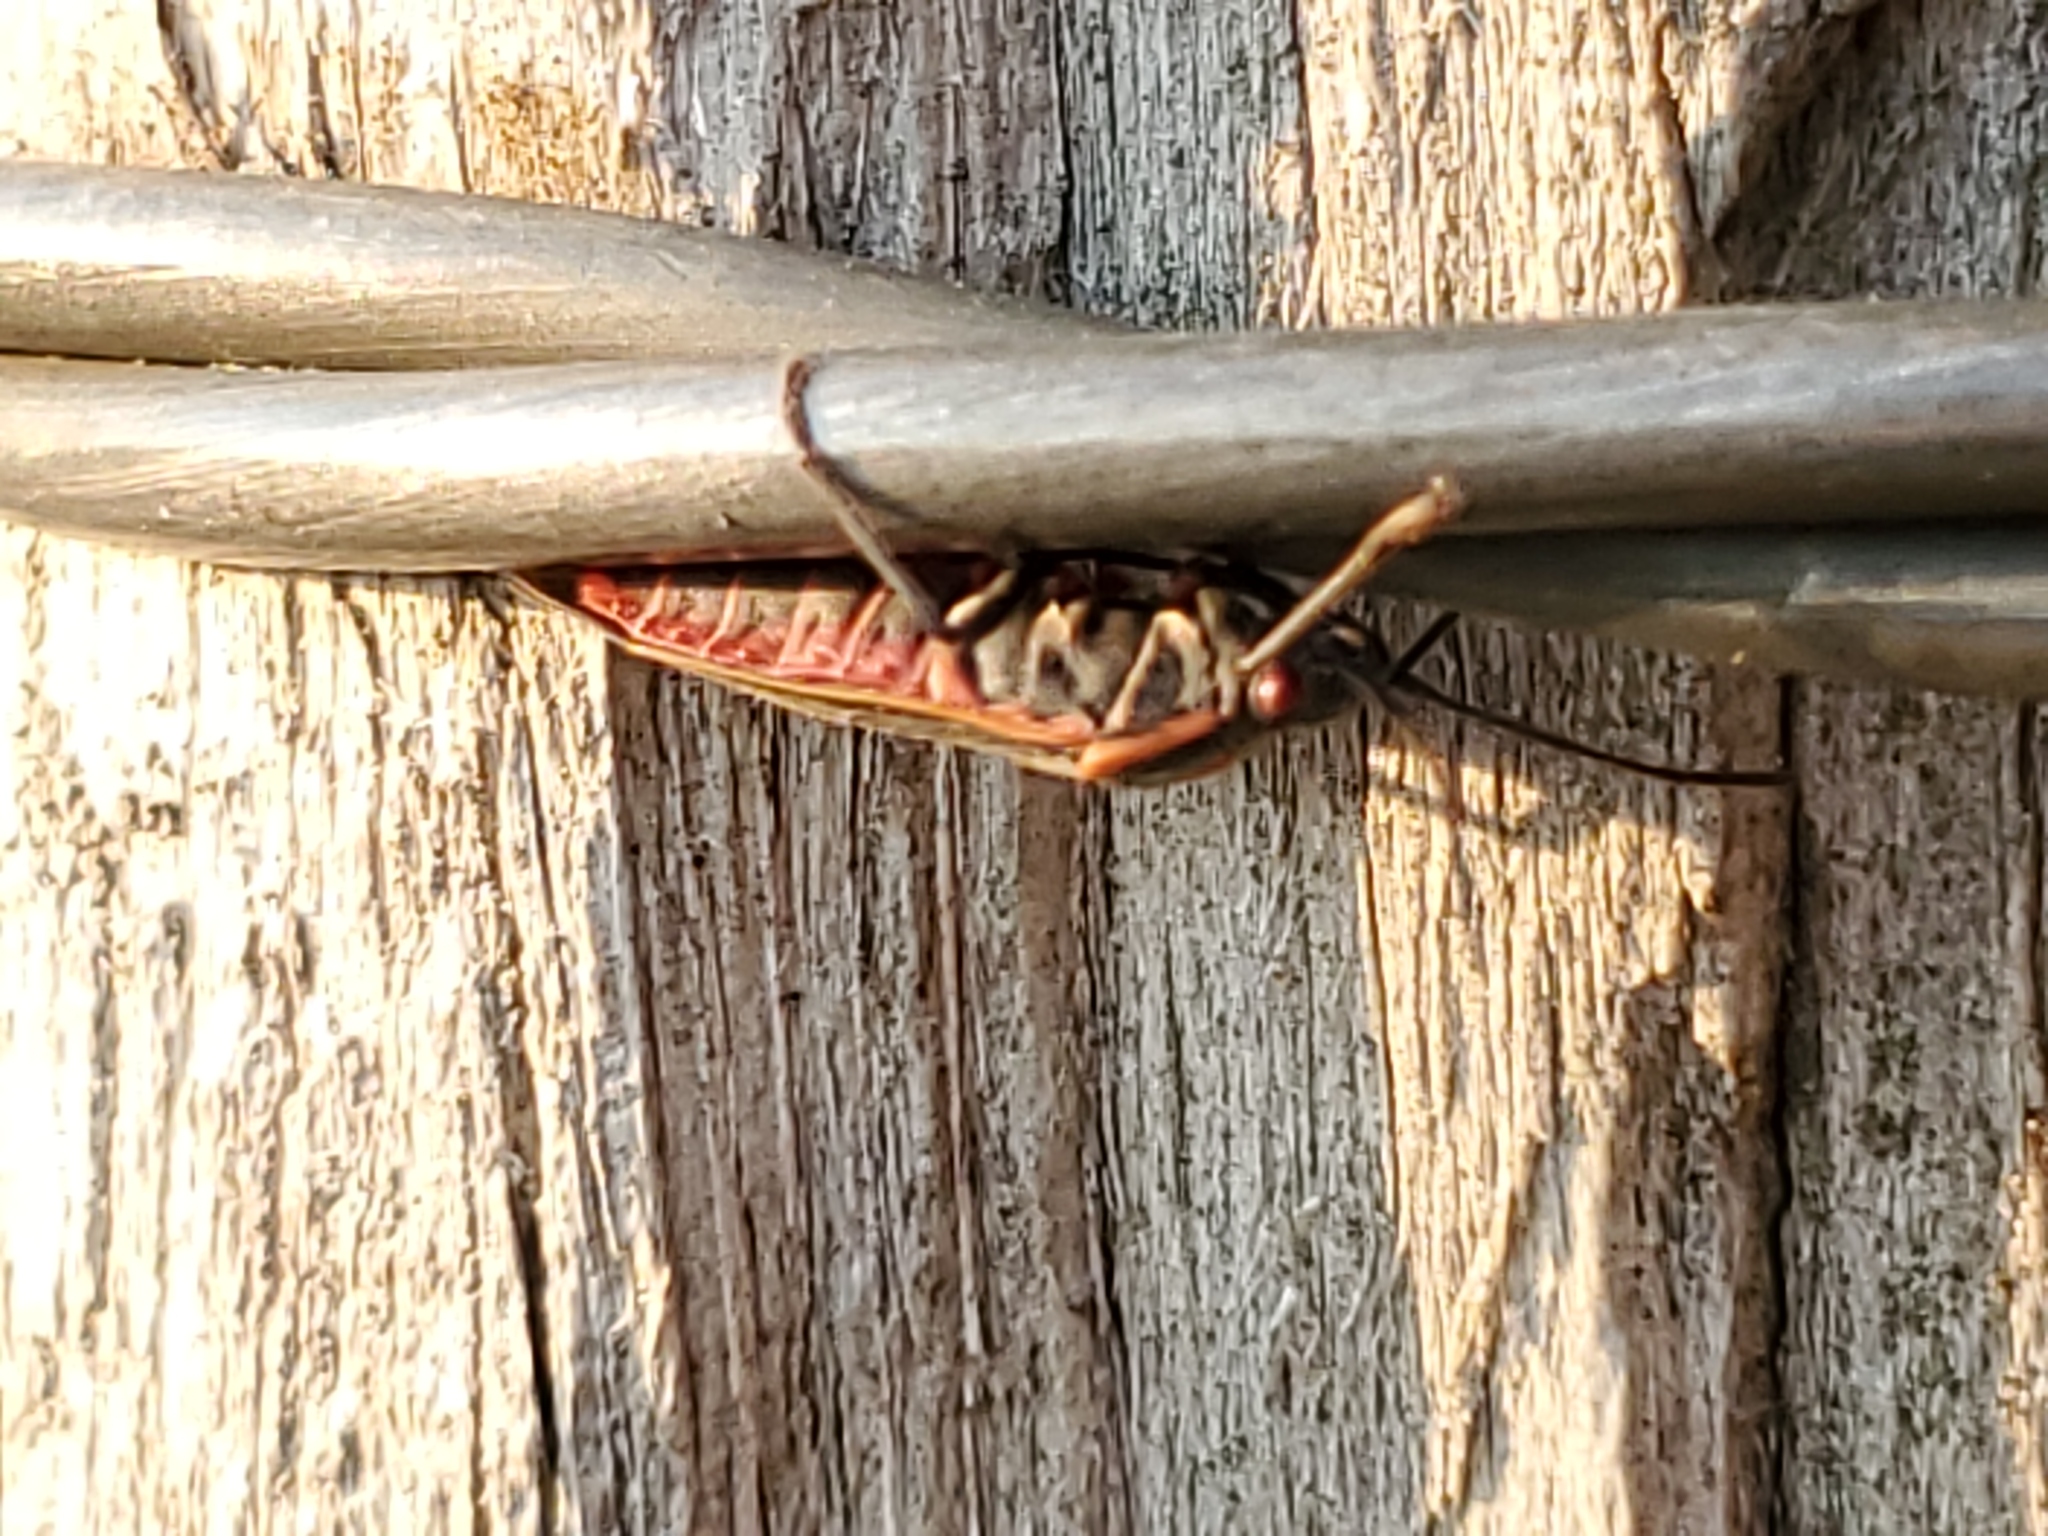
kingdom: Animalia
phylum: Arthropoda
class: Insecta
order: Hemiptera
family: Rhopalidae
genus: Boisea
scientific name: Boisea trivittata
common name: Boxelder bug
